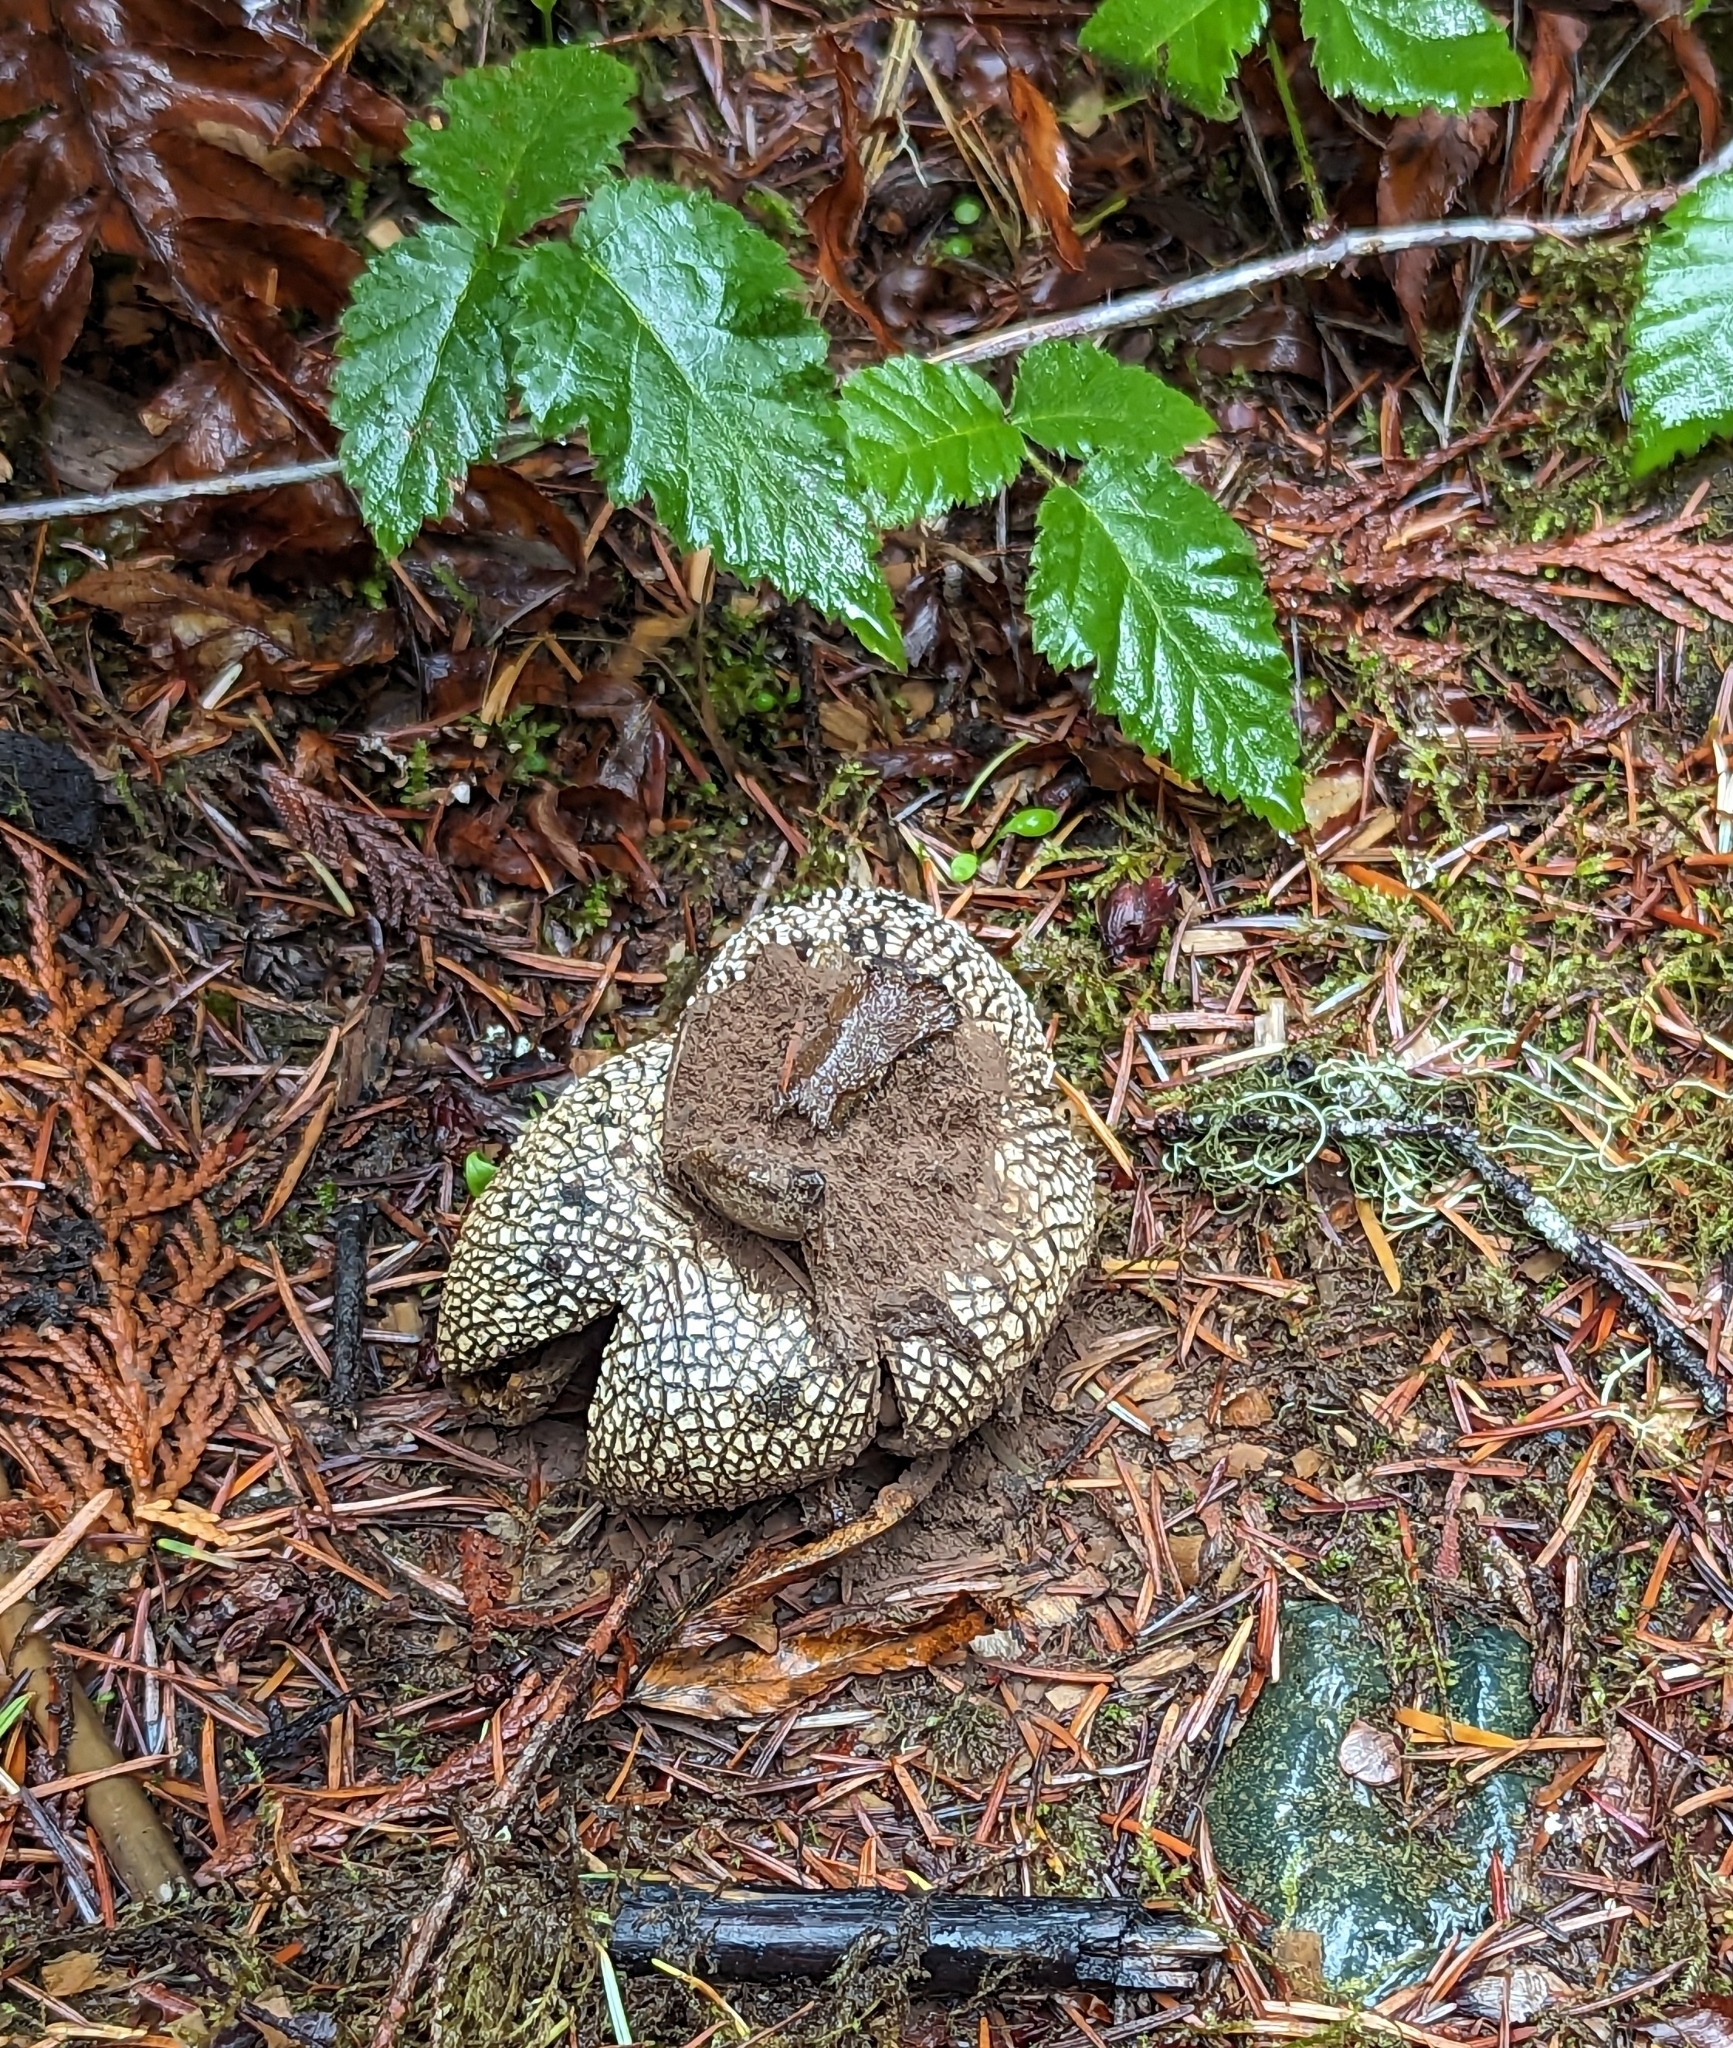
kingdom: Fungi
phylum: Basidiomycota
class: Agaricomycetes
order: Boletales
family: Diplocystidiaceae
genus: Astraeus
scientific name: Astraeus pteridis
